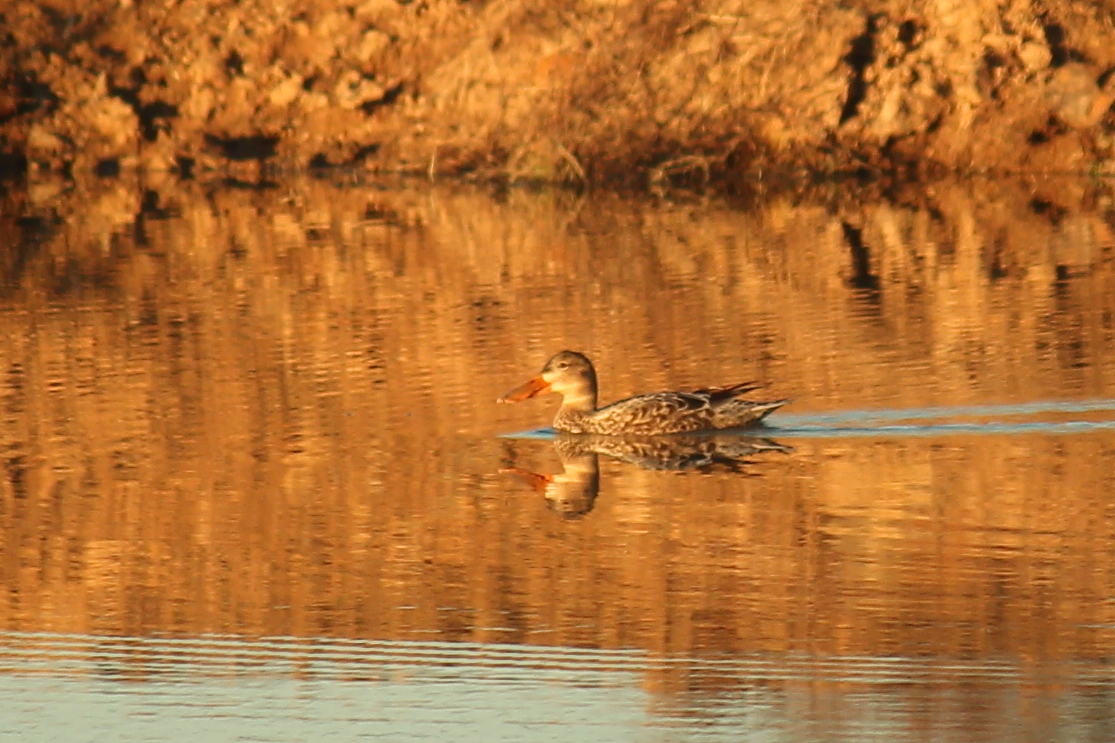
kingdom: Animalia
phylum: Chordata
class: Aves
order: Anseriformes
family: Anatidae
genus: Spatula
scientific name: Spatula clypeata
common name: Northern shoveler
